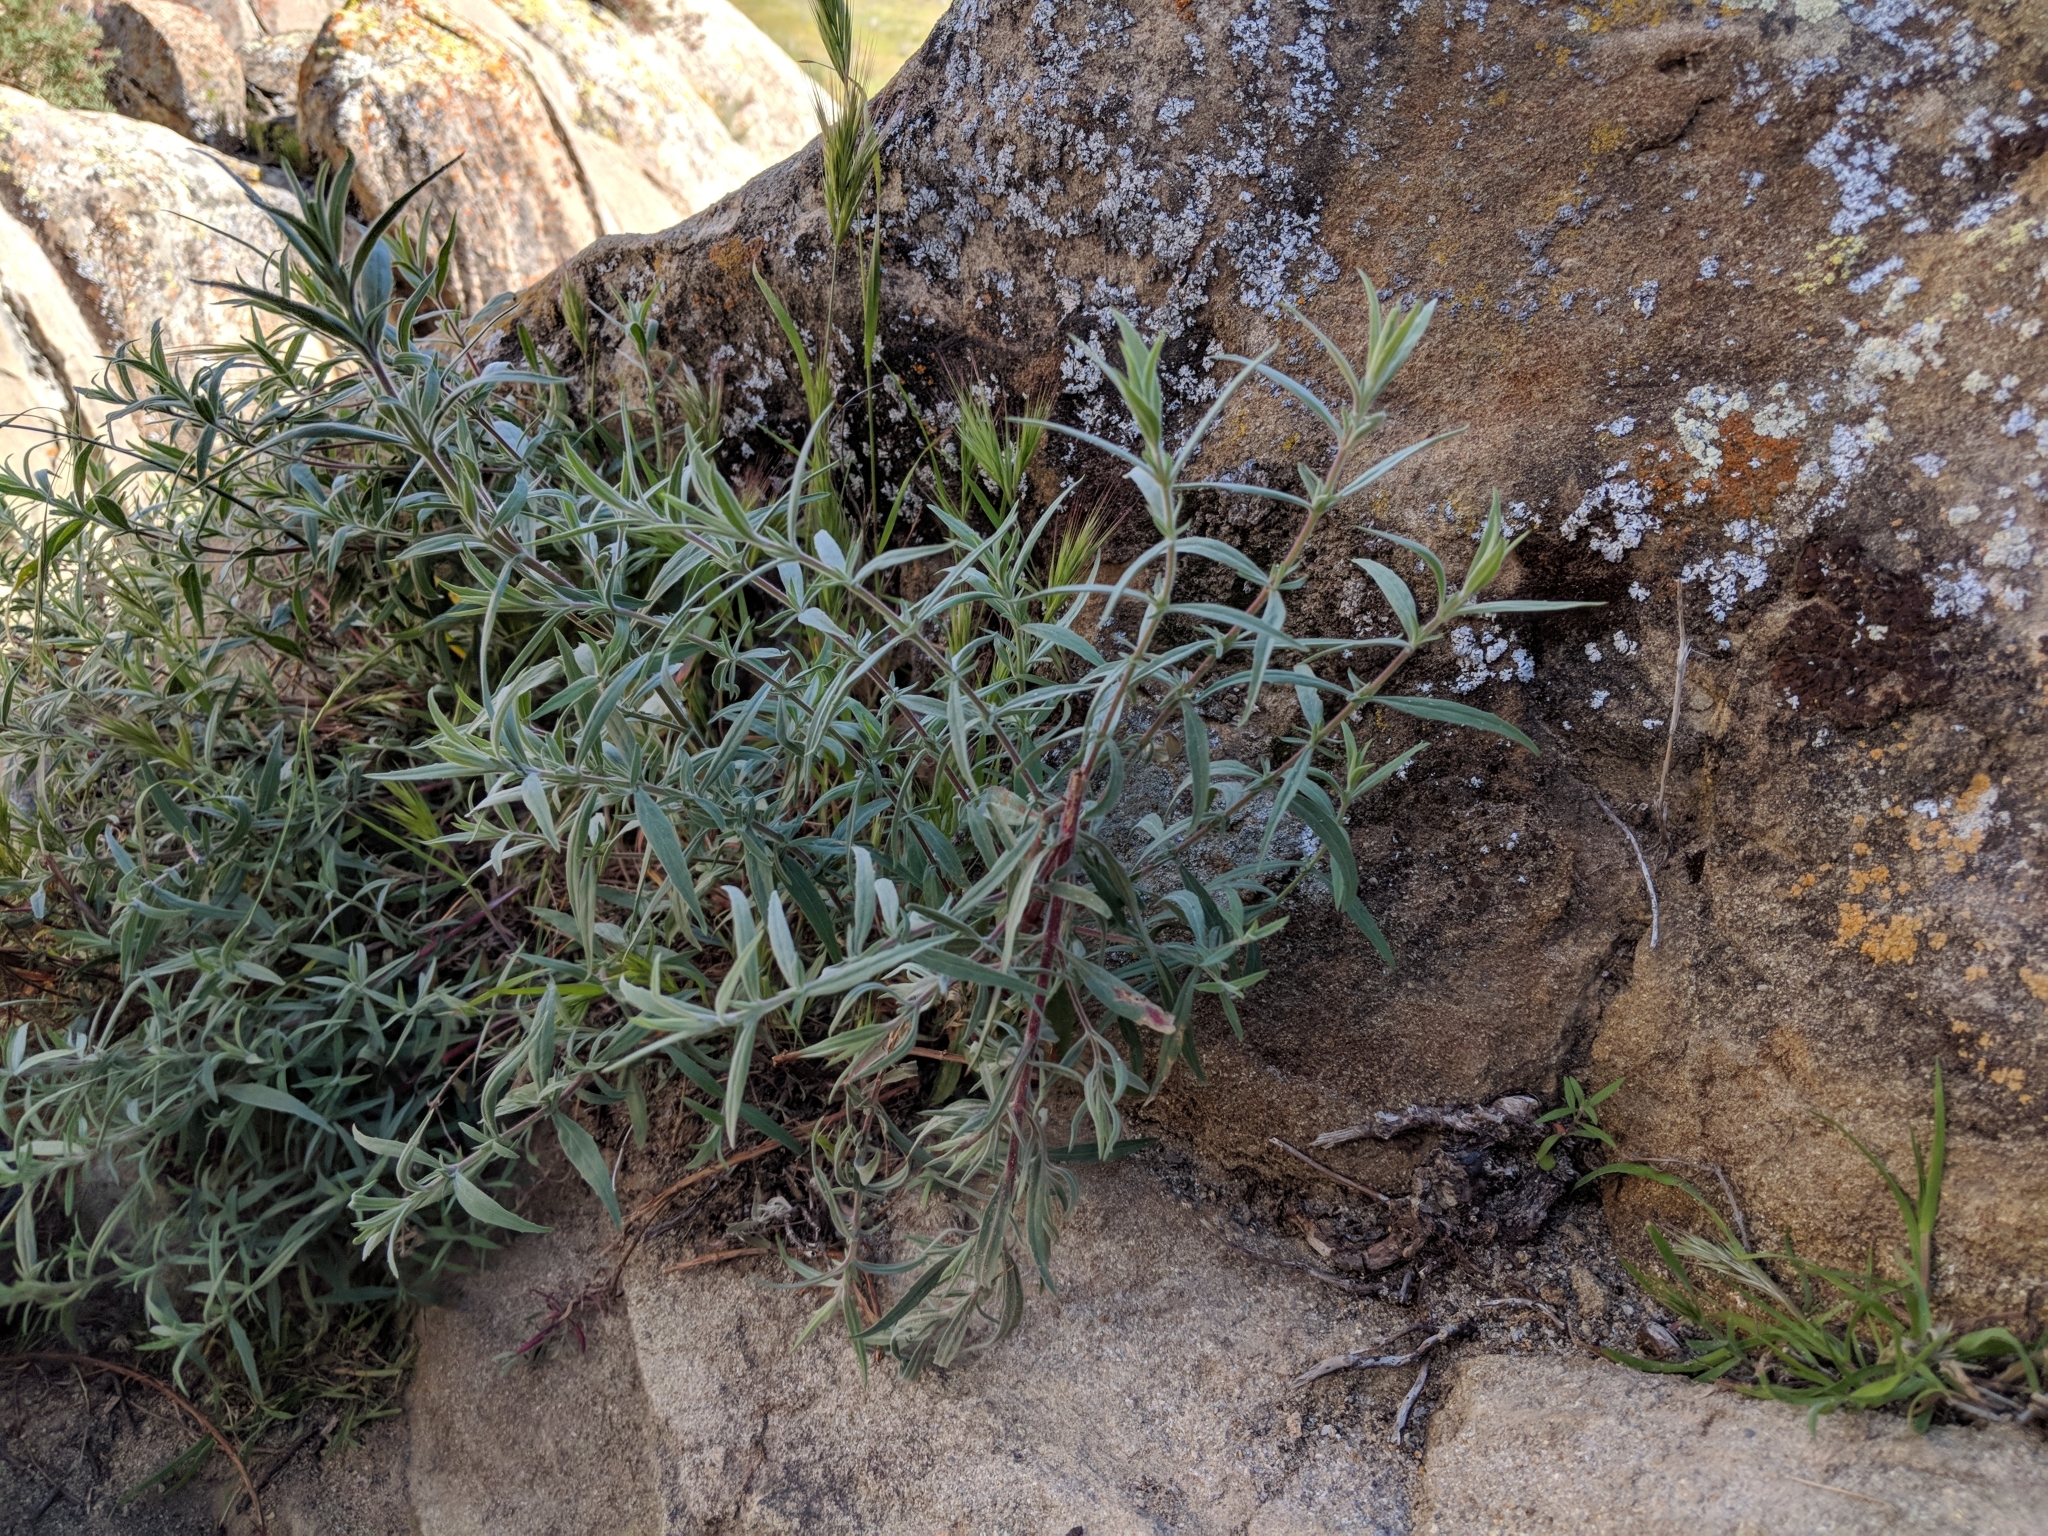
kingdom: Plantae
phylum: Tracheophyta
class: Magnoliopsida
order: Myrtales
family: Onagraceae
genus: Epilobium
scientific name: Epilobium canum
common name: California-fuchsia
